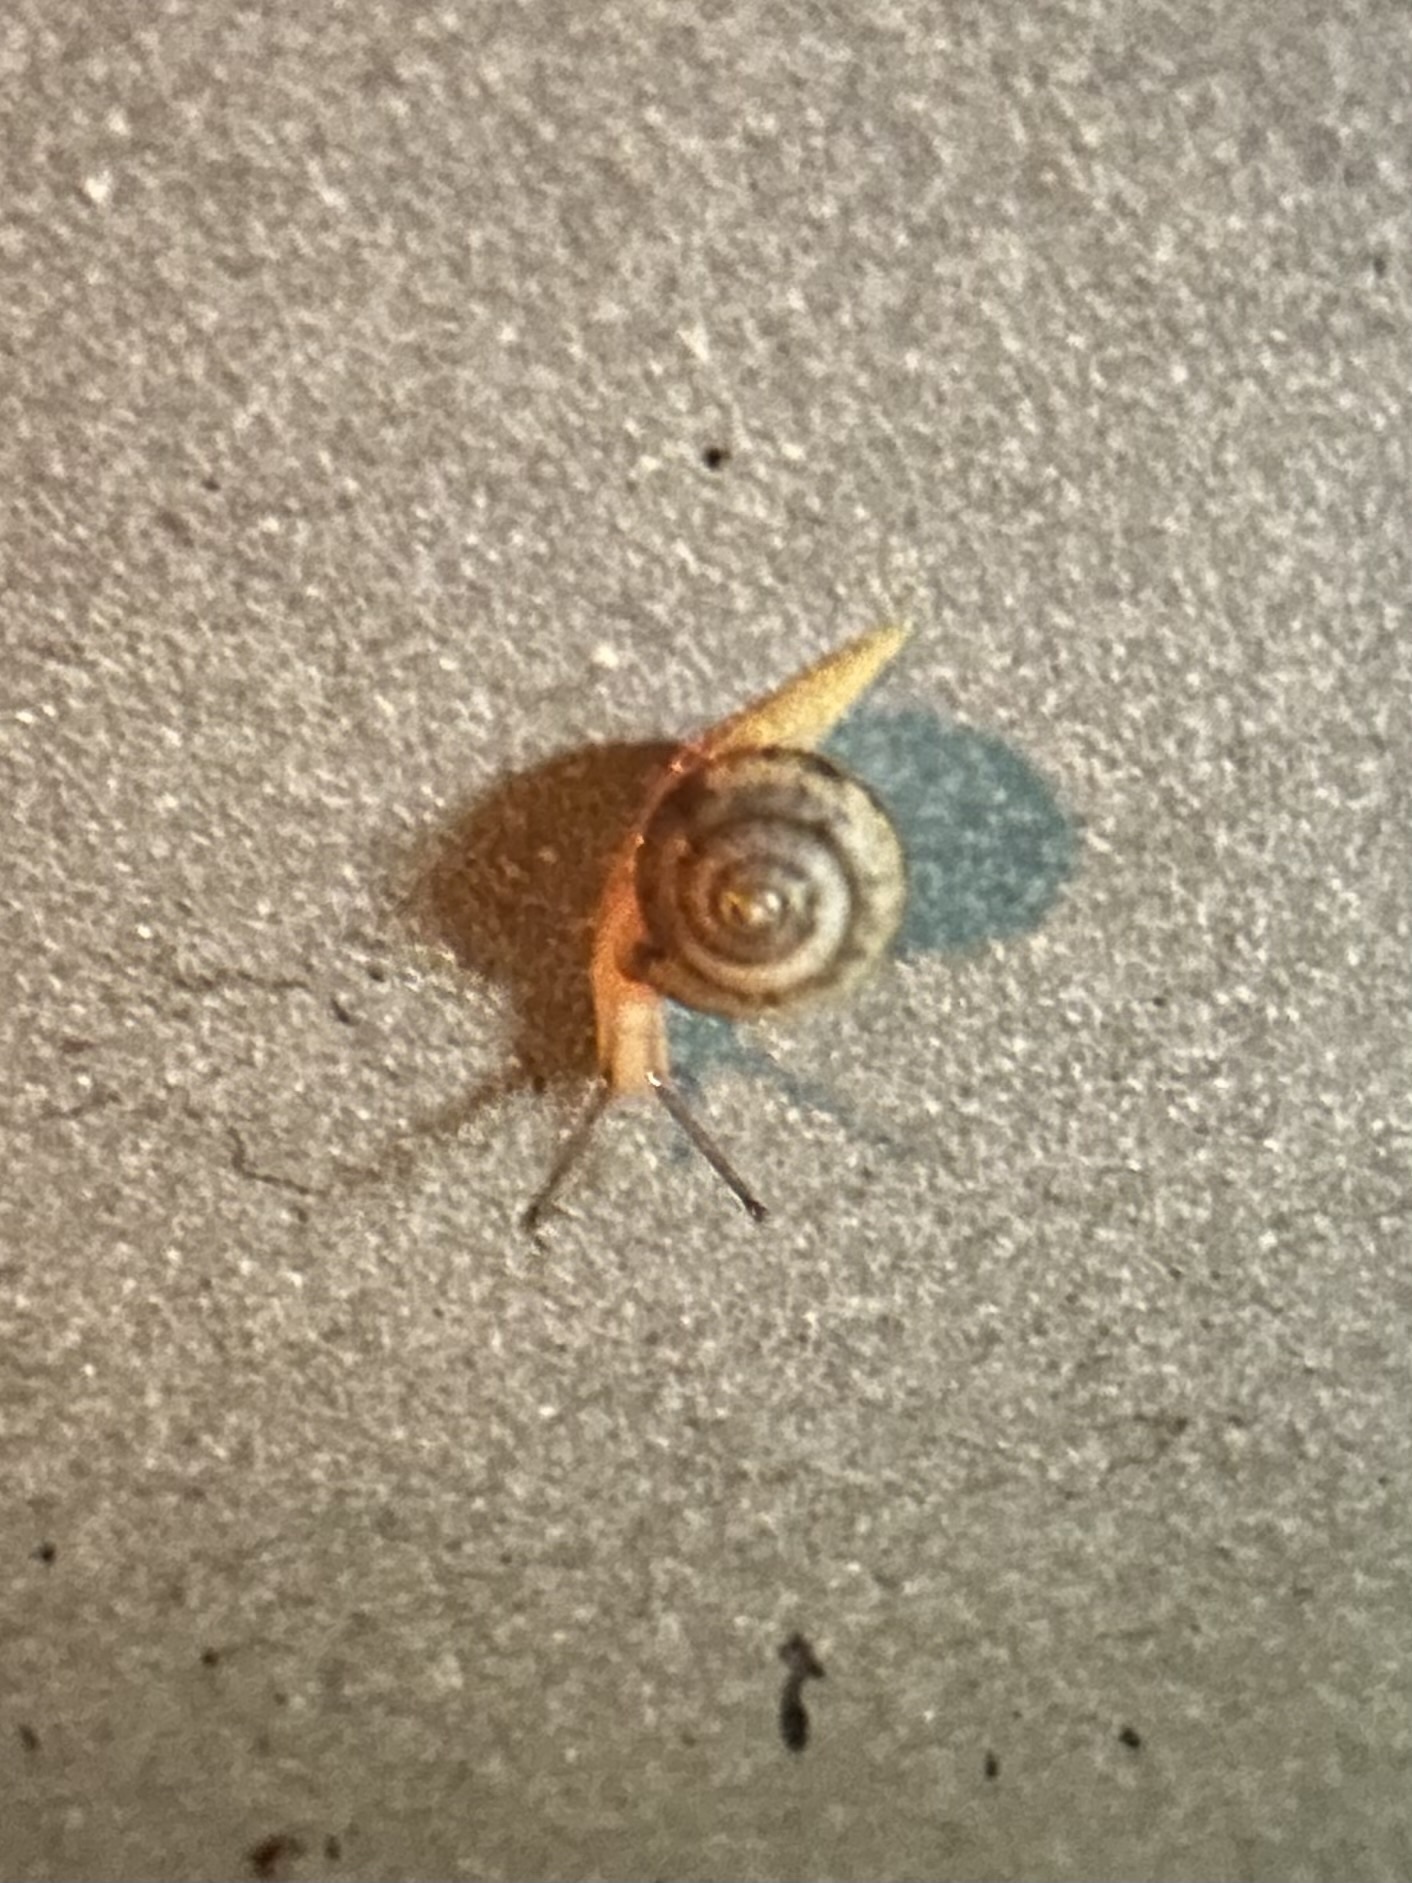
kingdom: Animalia
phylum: Mollusca
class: Gastropoda
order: Stylommatophora
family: Camaenidae
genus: Bradybaena
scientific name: Bradybaena similaris
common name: Asian trampsnail
